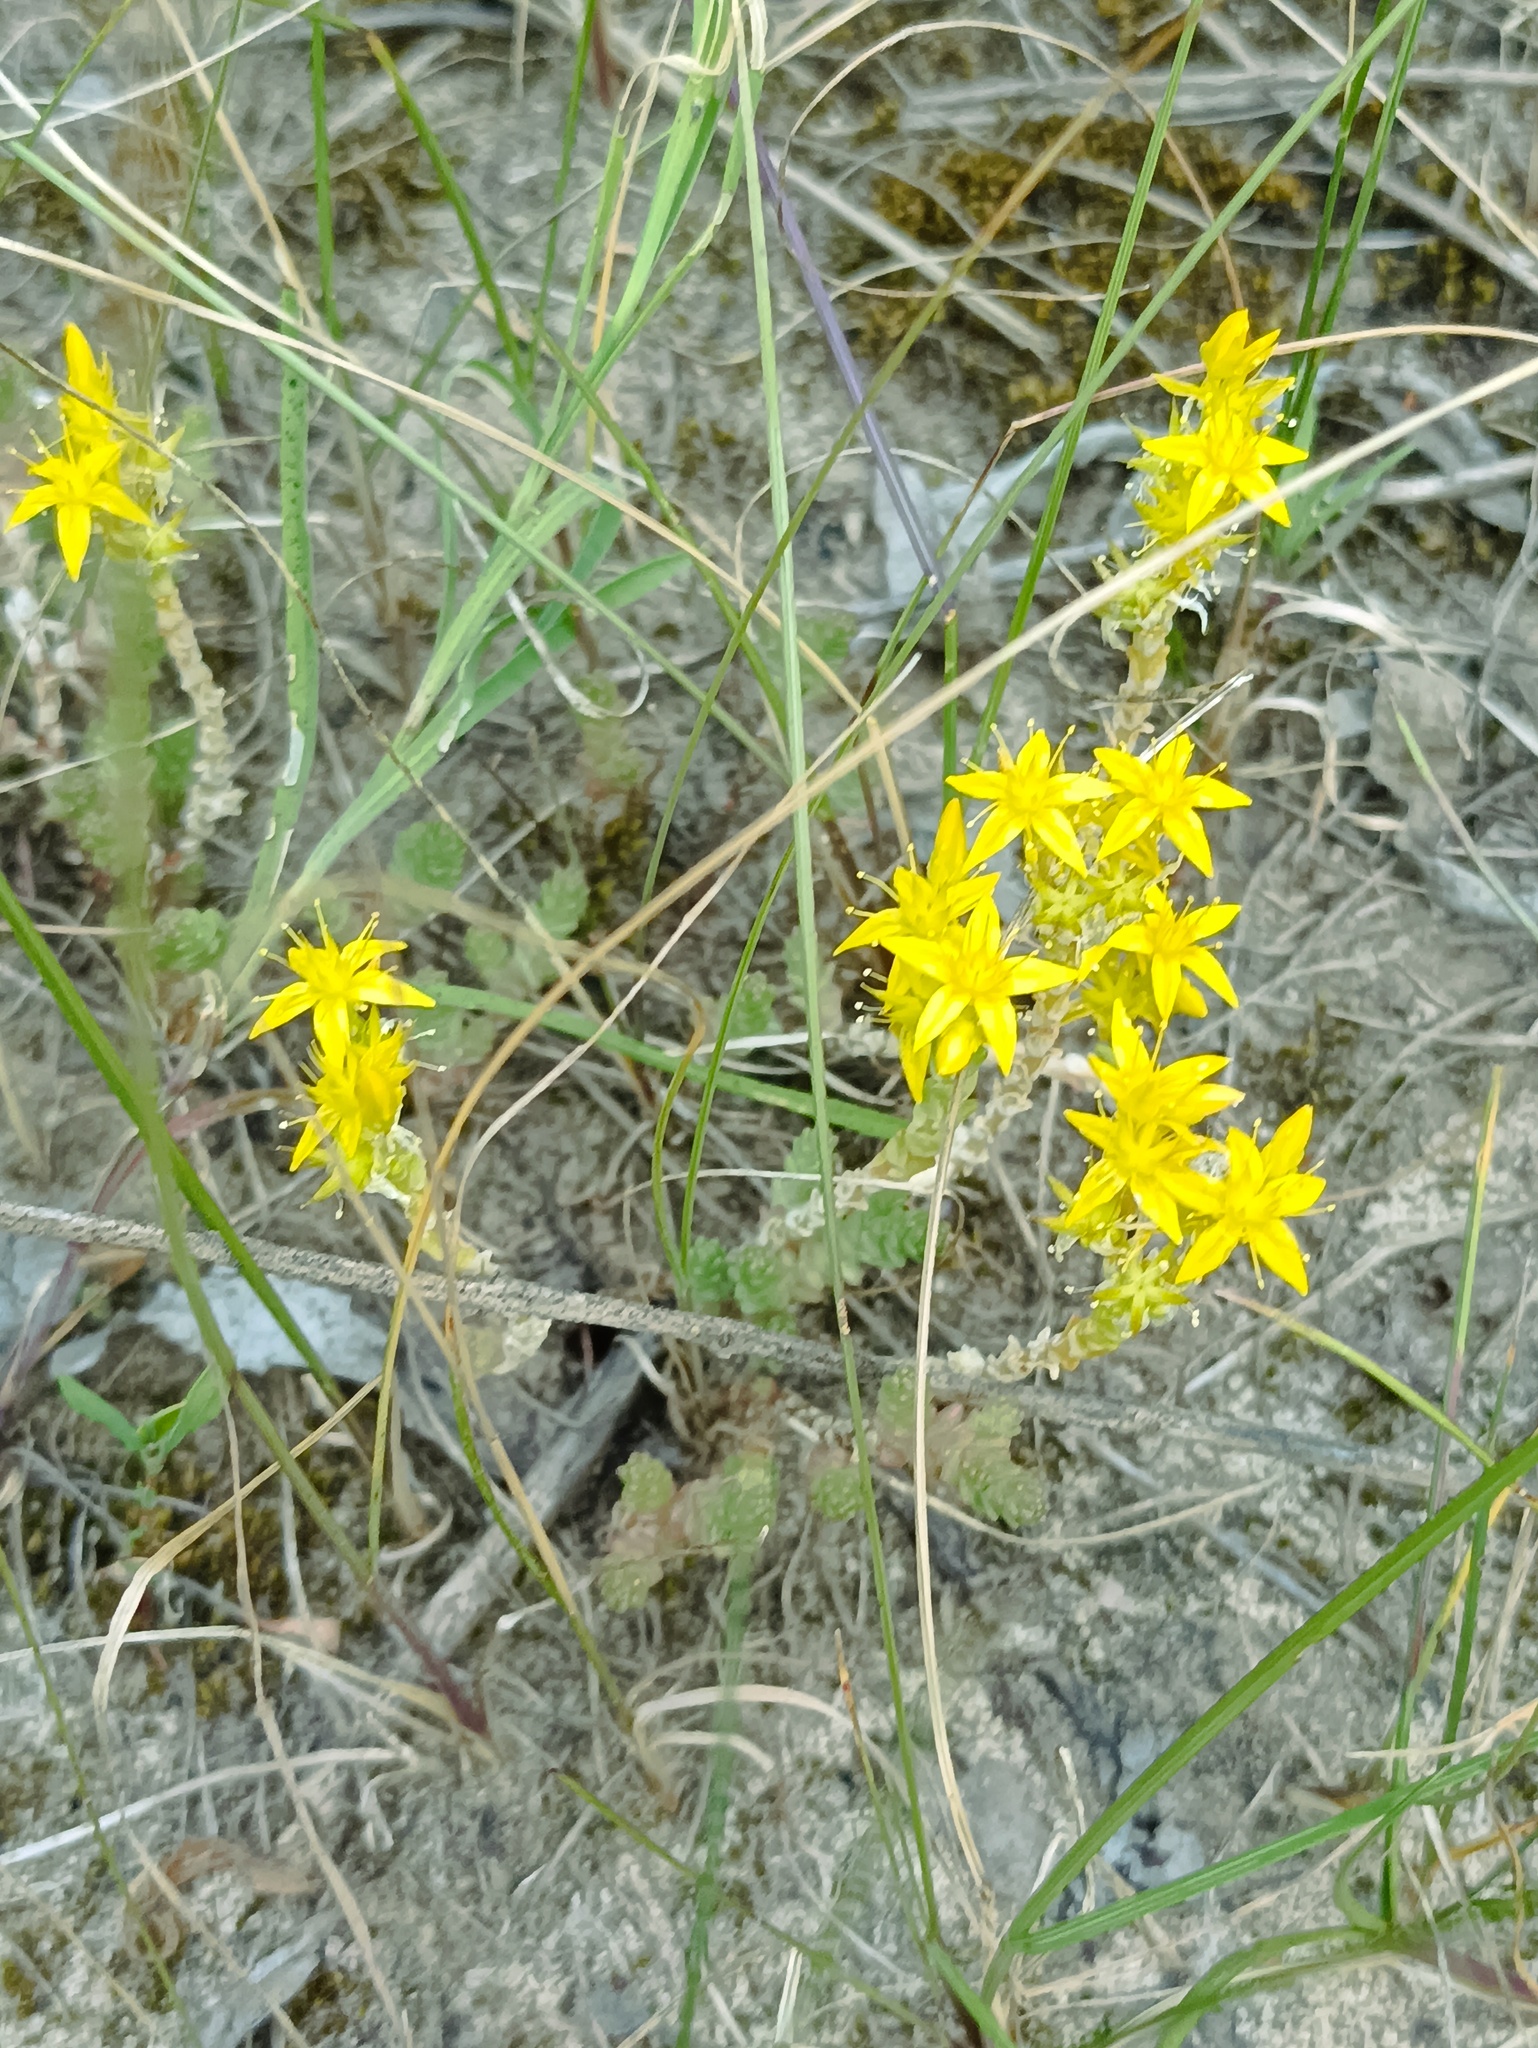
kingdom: Plantae
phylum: Tracheophyta
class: Magnoliopsida
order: Saxifragales
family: Crassulaceae
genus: Sedum
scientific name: Sedum acre
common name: Biting stonecrop
